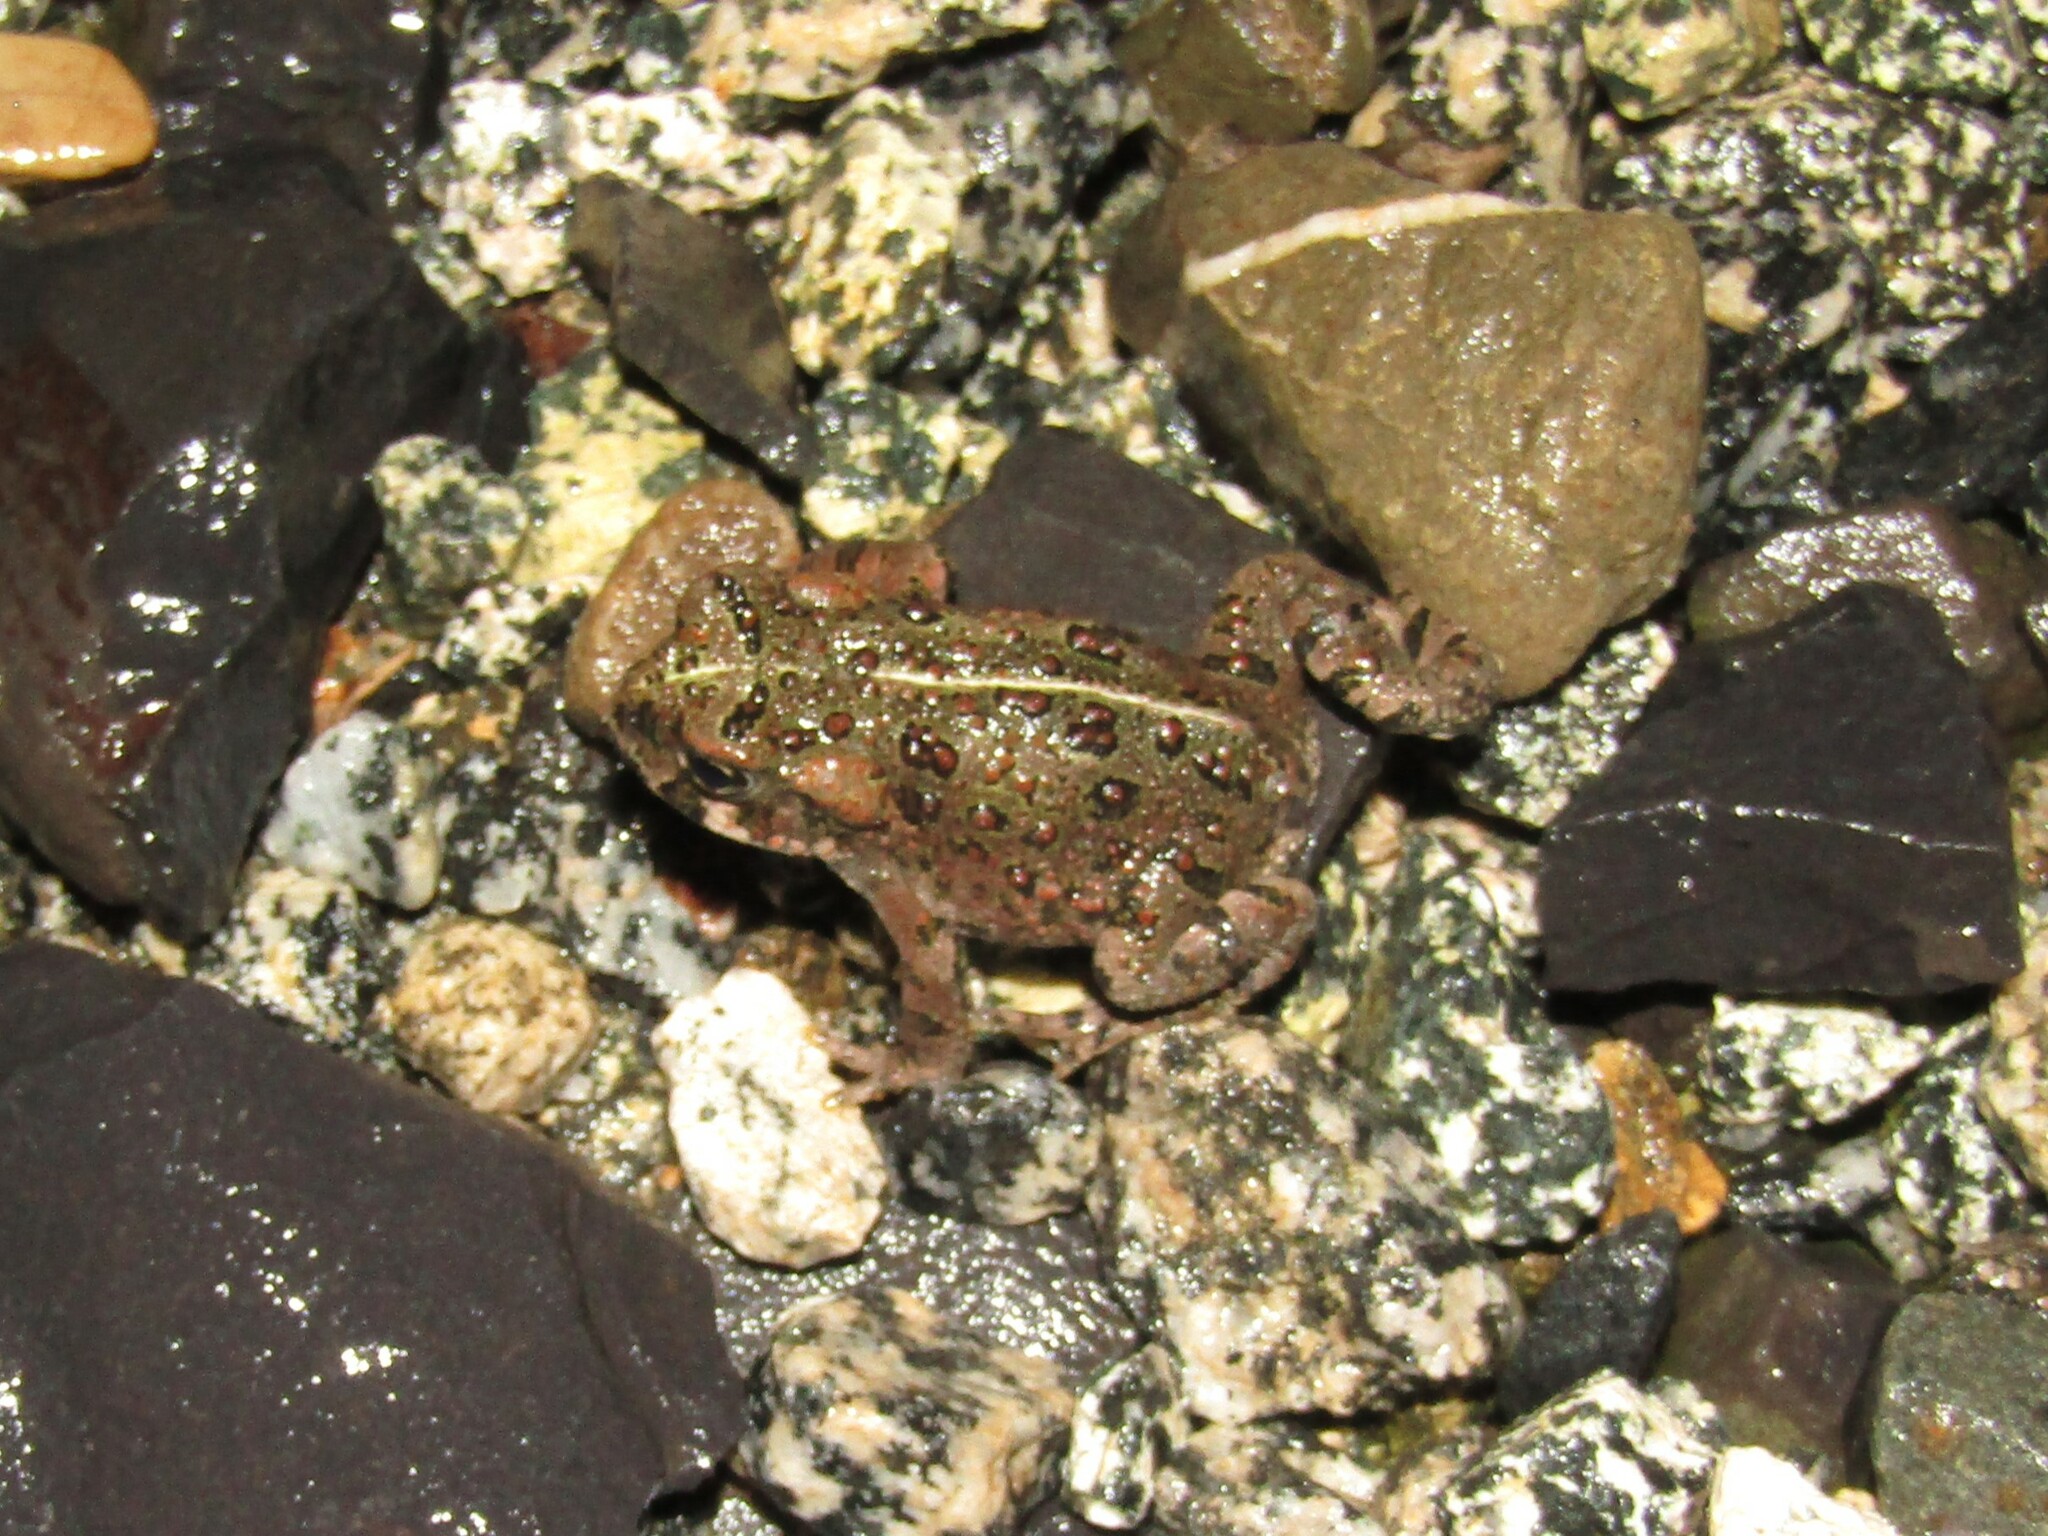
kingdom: Animalia
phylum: Chordata
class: Amphibia
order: Anura
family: Bufonidae
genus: Anaxyrus
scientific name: Anaxyrus boreas
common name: Western toad
